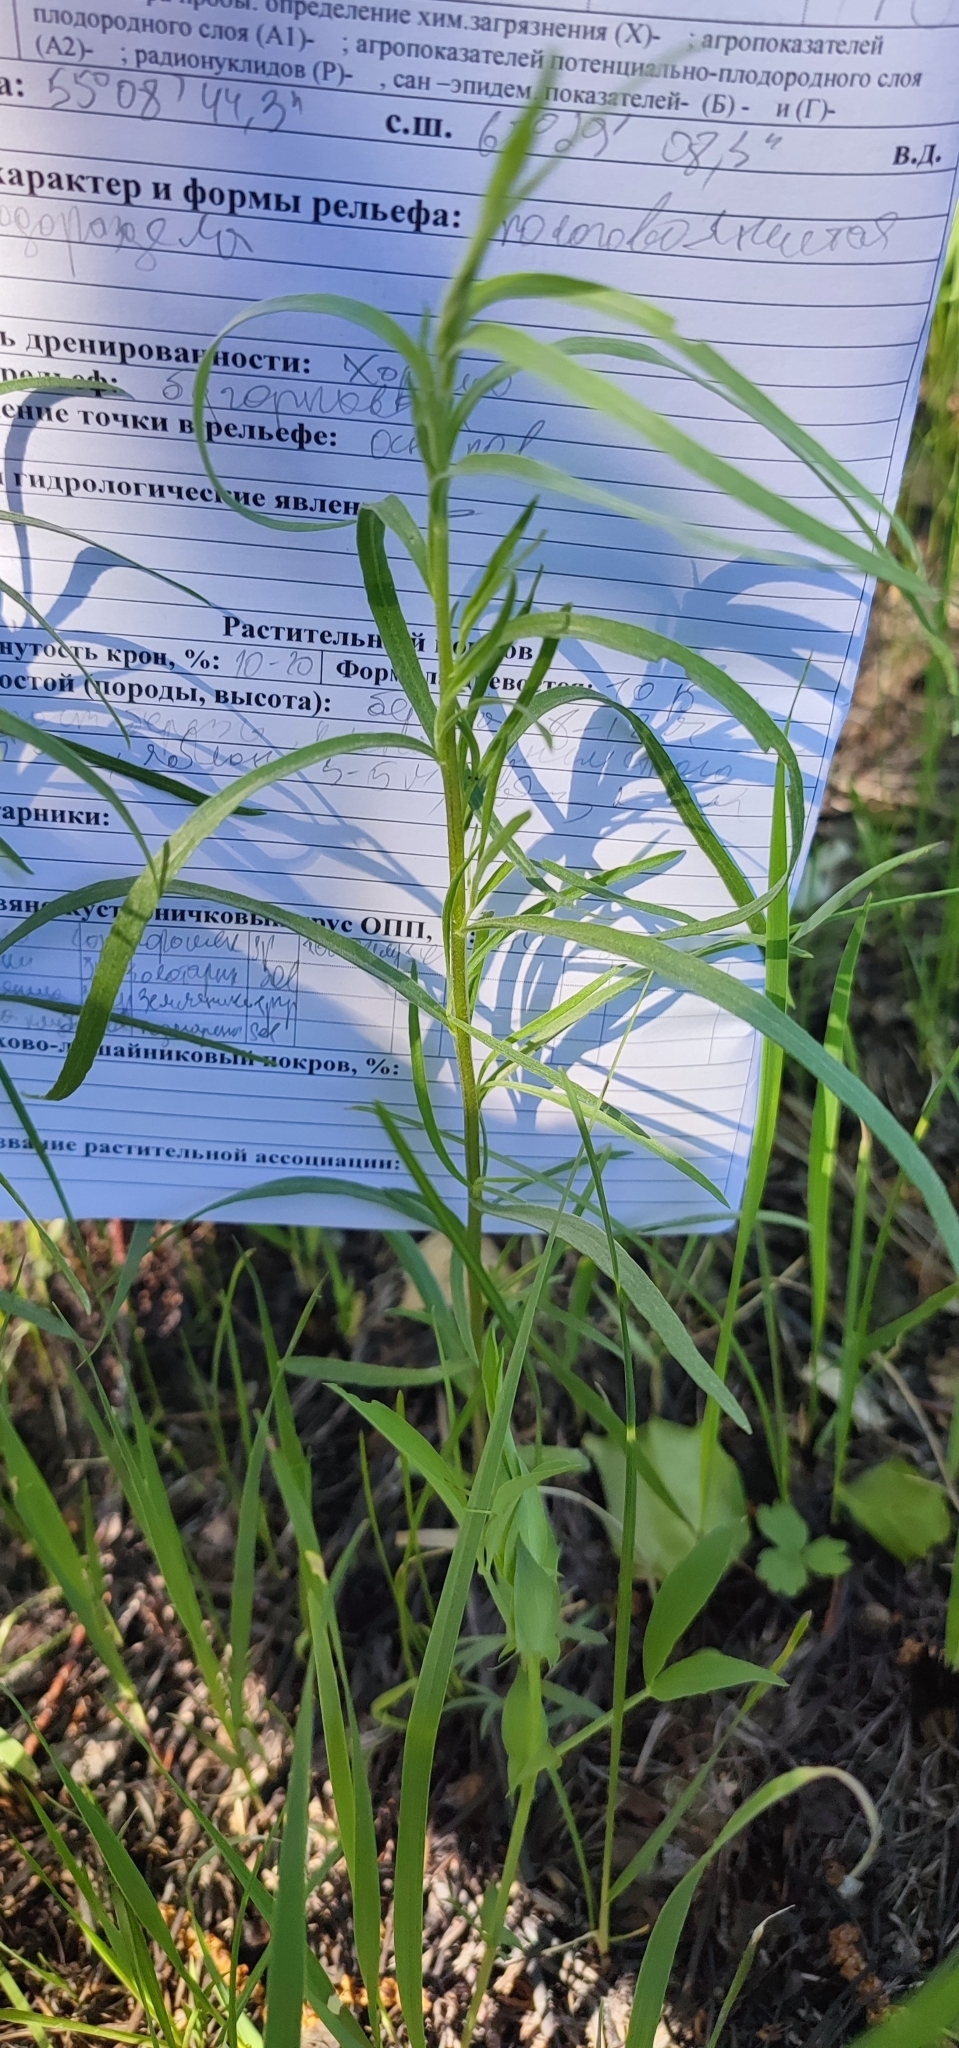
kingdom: Plantae
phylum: Tracheophyta
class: Magnoliopsida
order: Asterales
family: Asteraceae
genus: Artemisia
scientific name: Artemisia dracunculus
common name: Tarragon
